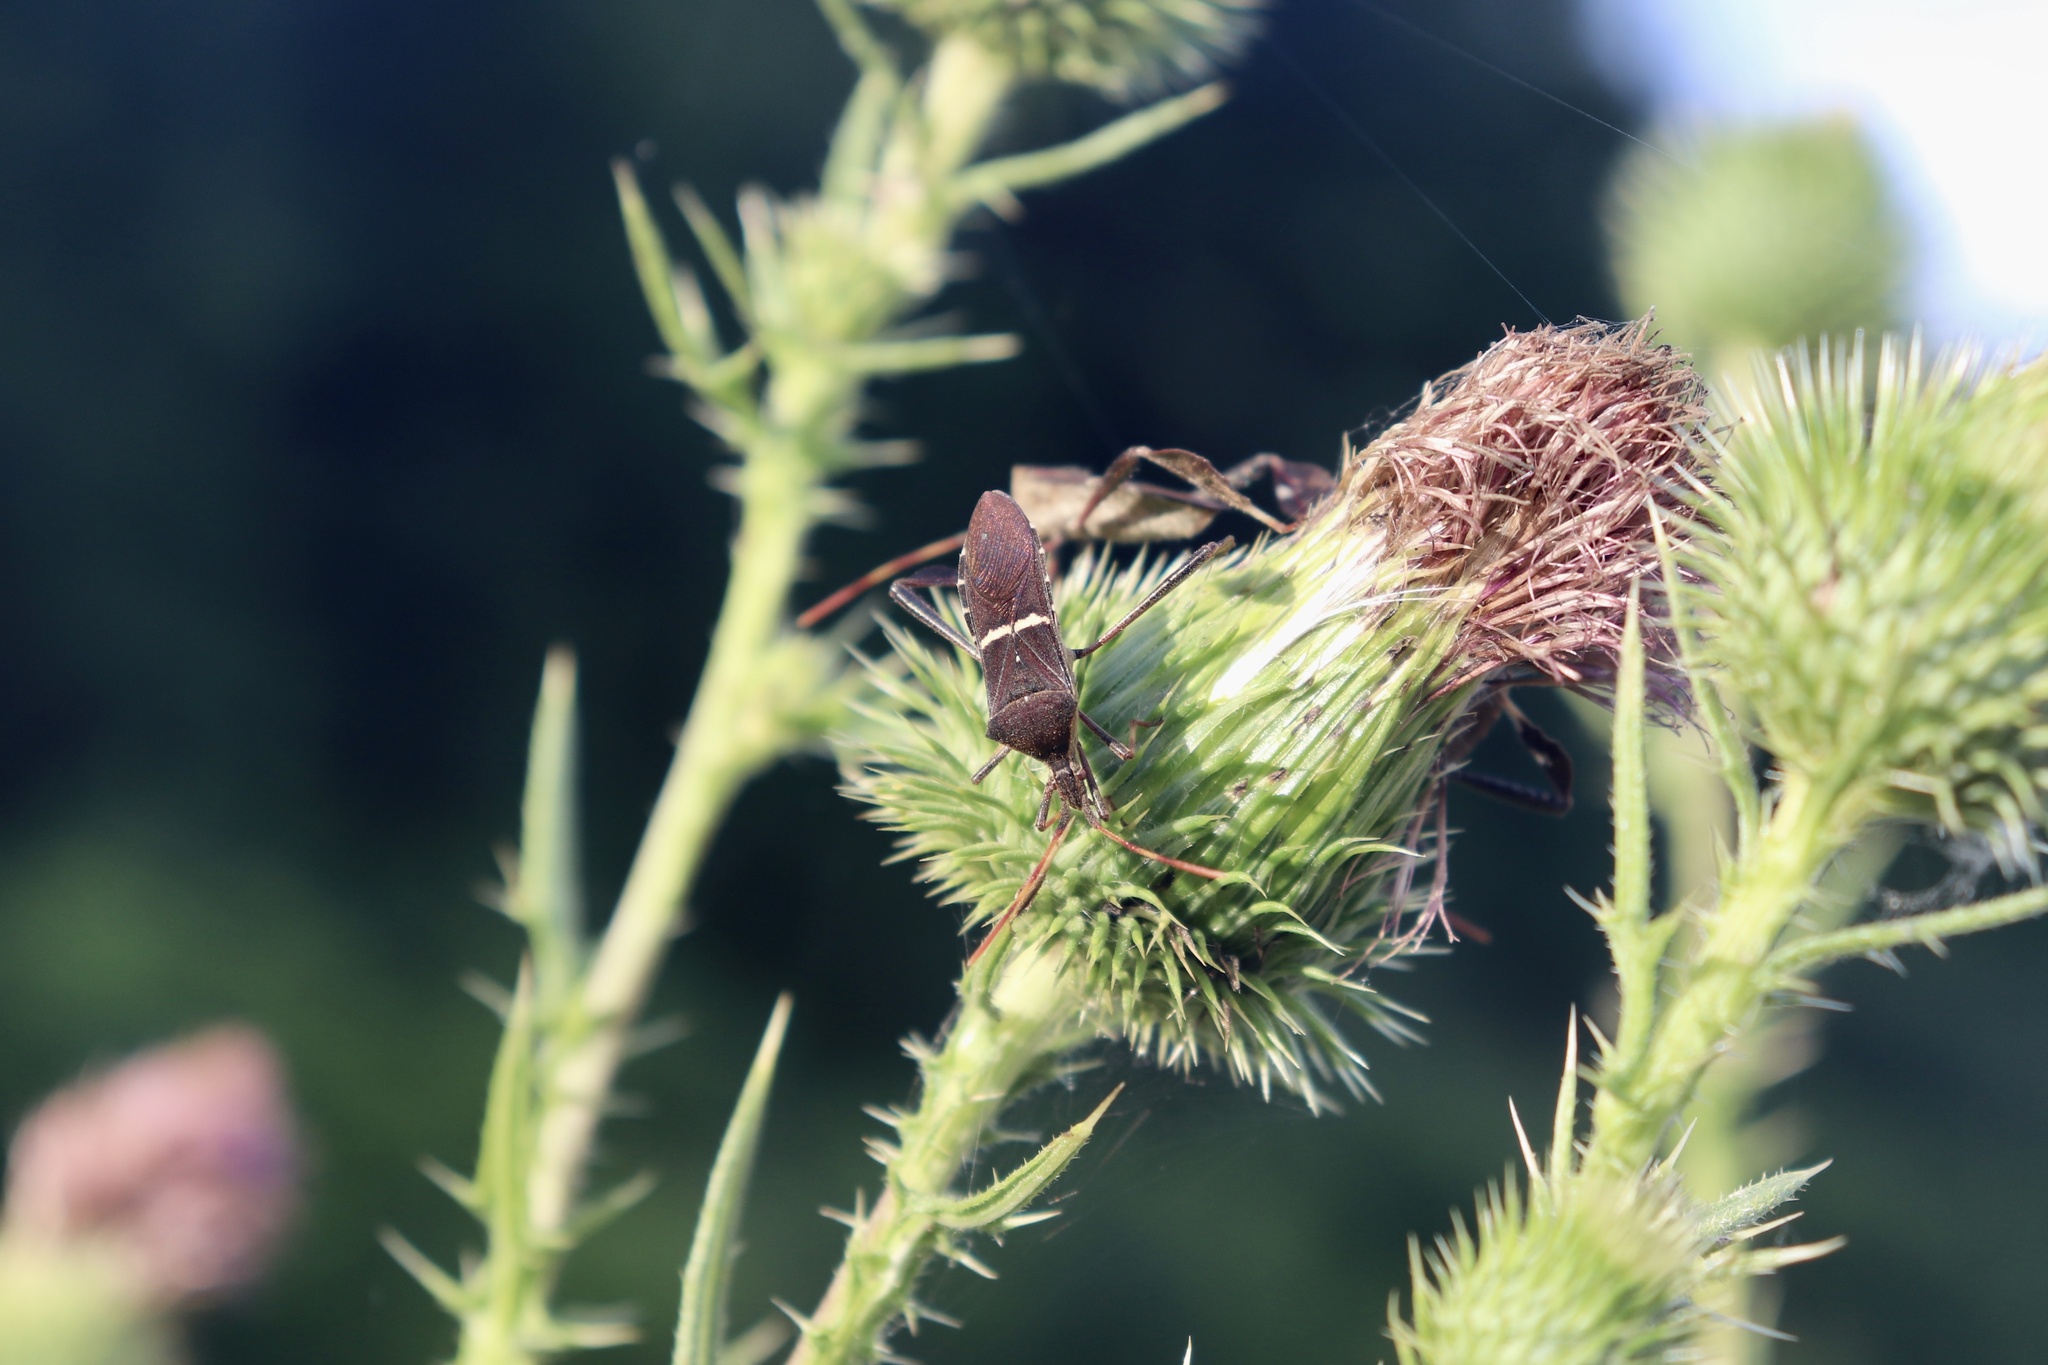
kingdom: Animalia
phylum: Arthropoda
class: Insecta
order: Hemiptera
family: Coreidae
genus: Leptoglossus
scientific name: Leptoglossus phyllopus
